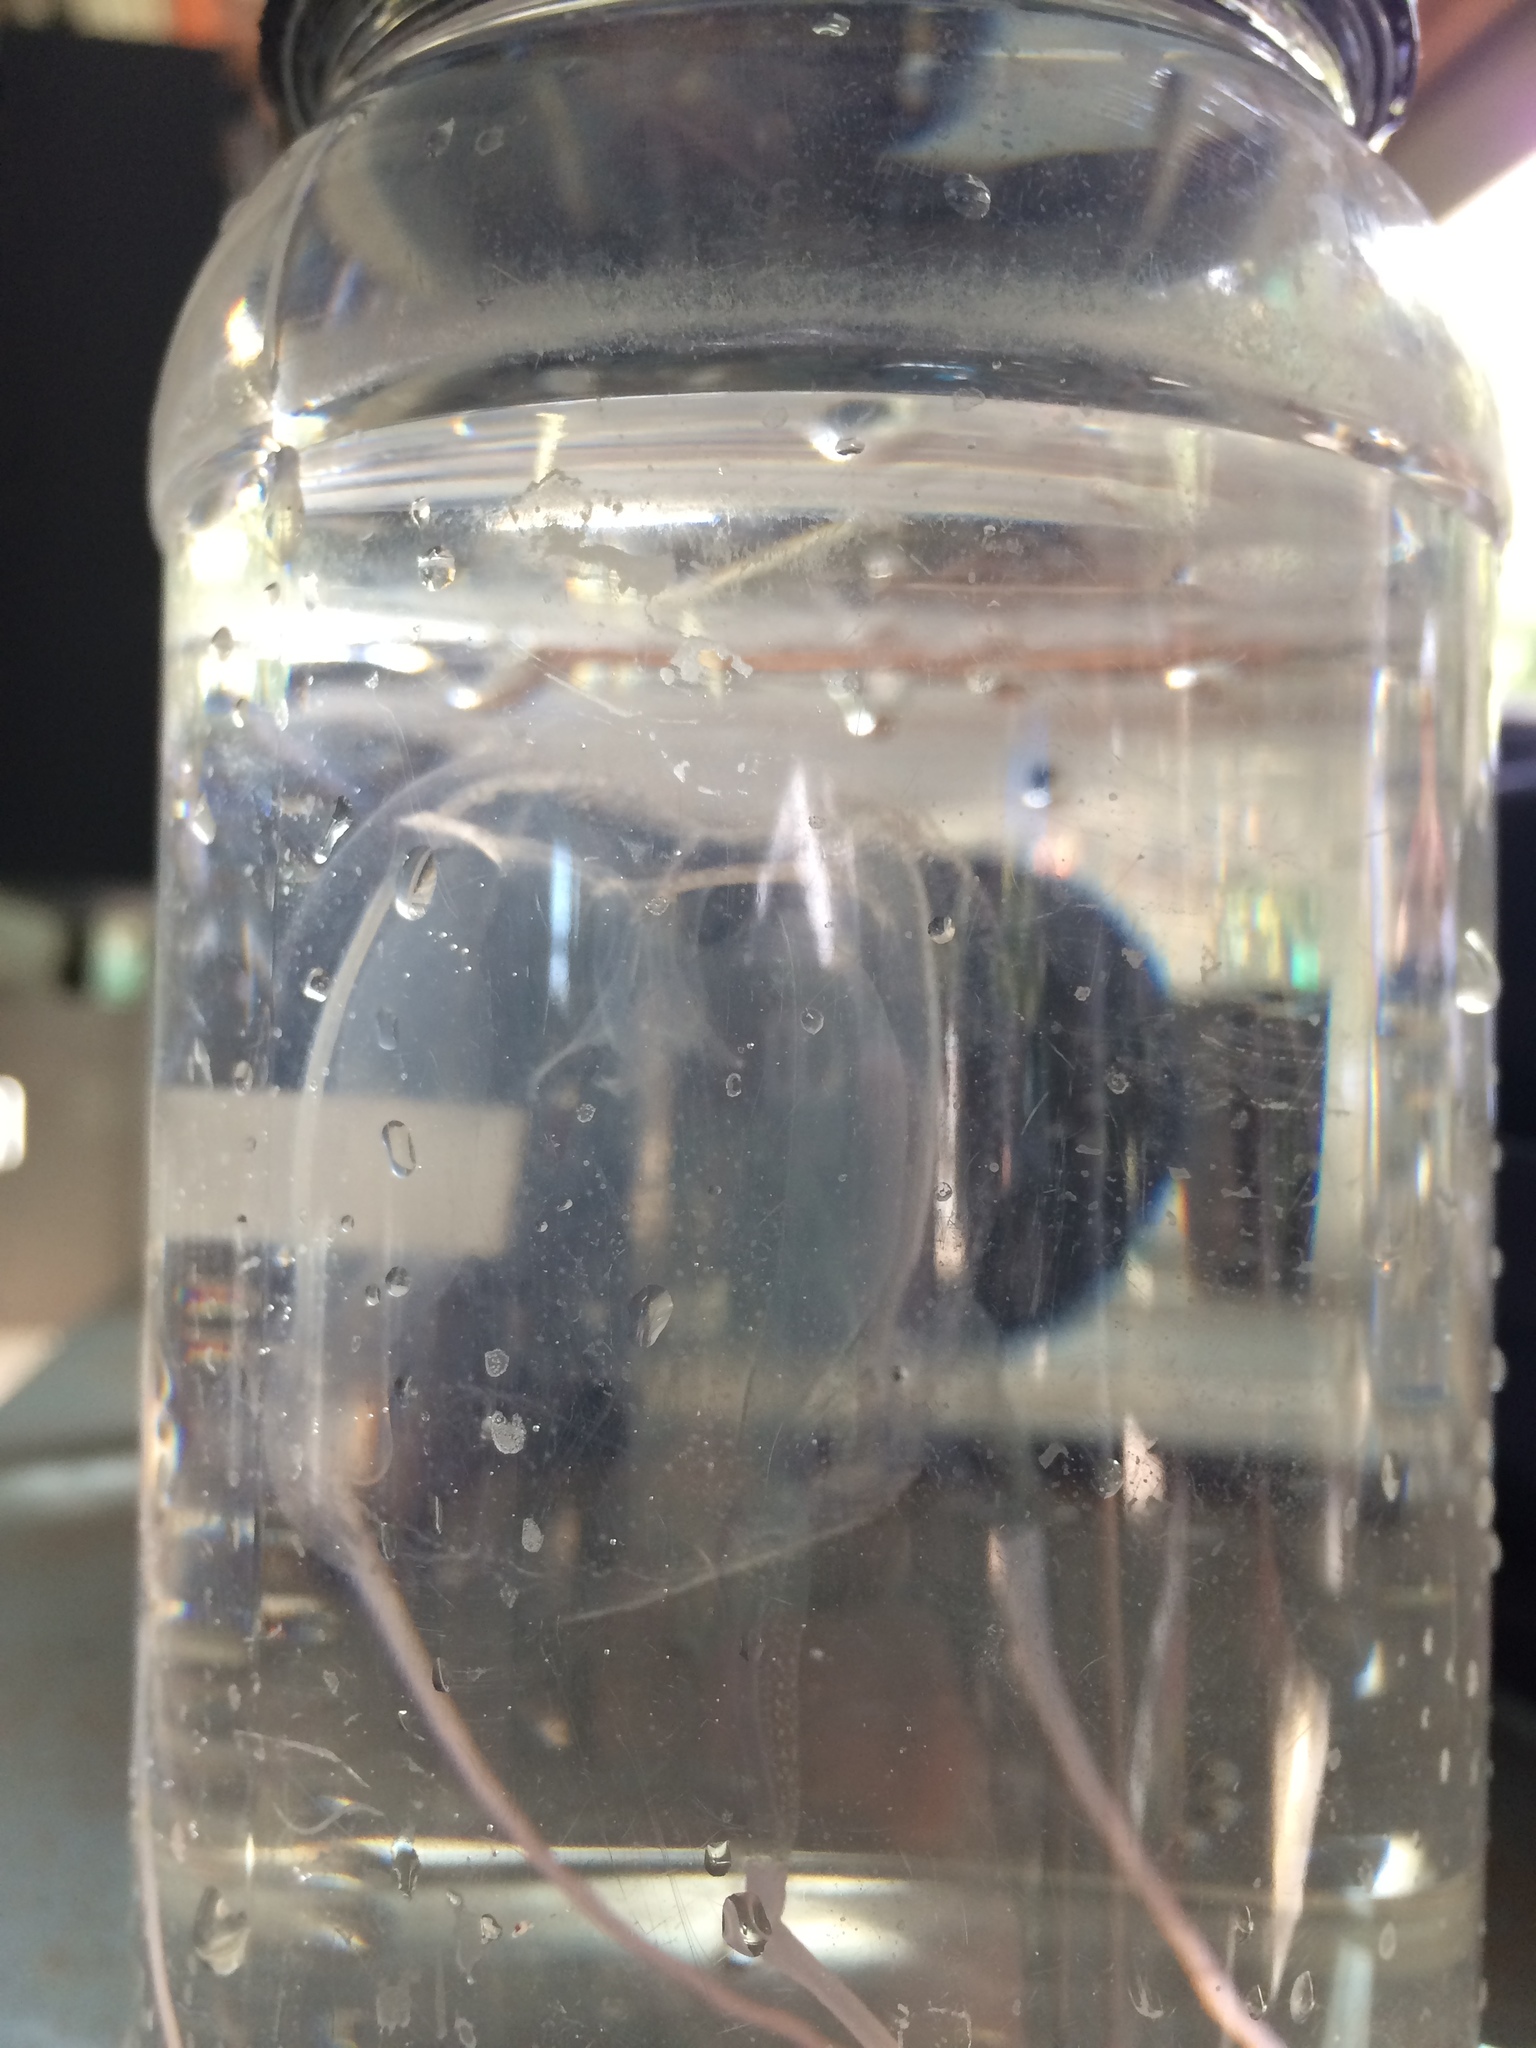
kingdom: Animalia
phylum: Cnidaria
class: Cubozoa
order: Carybdeida
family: Carybdeidae
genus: Carybdea
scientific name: Carybdea rastonii
